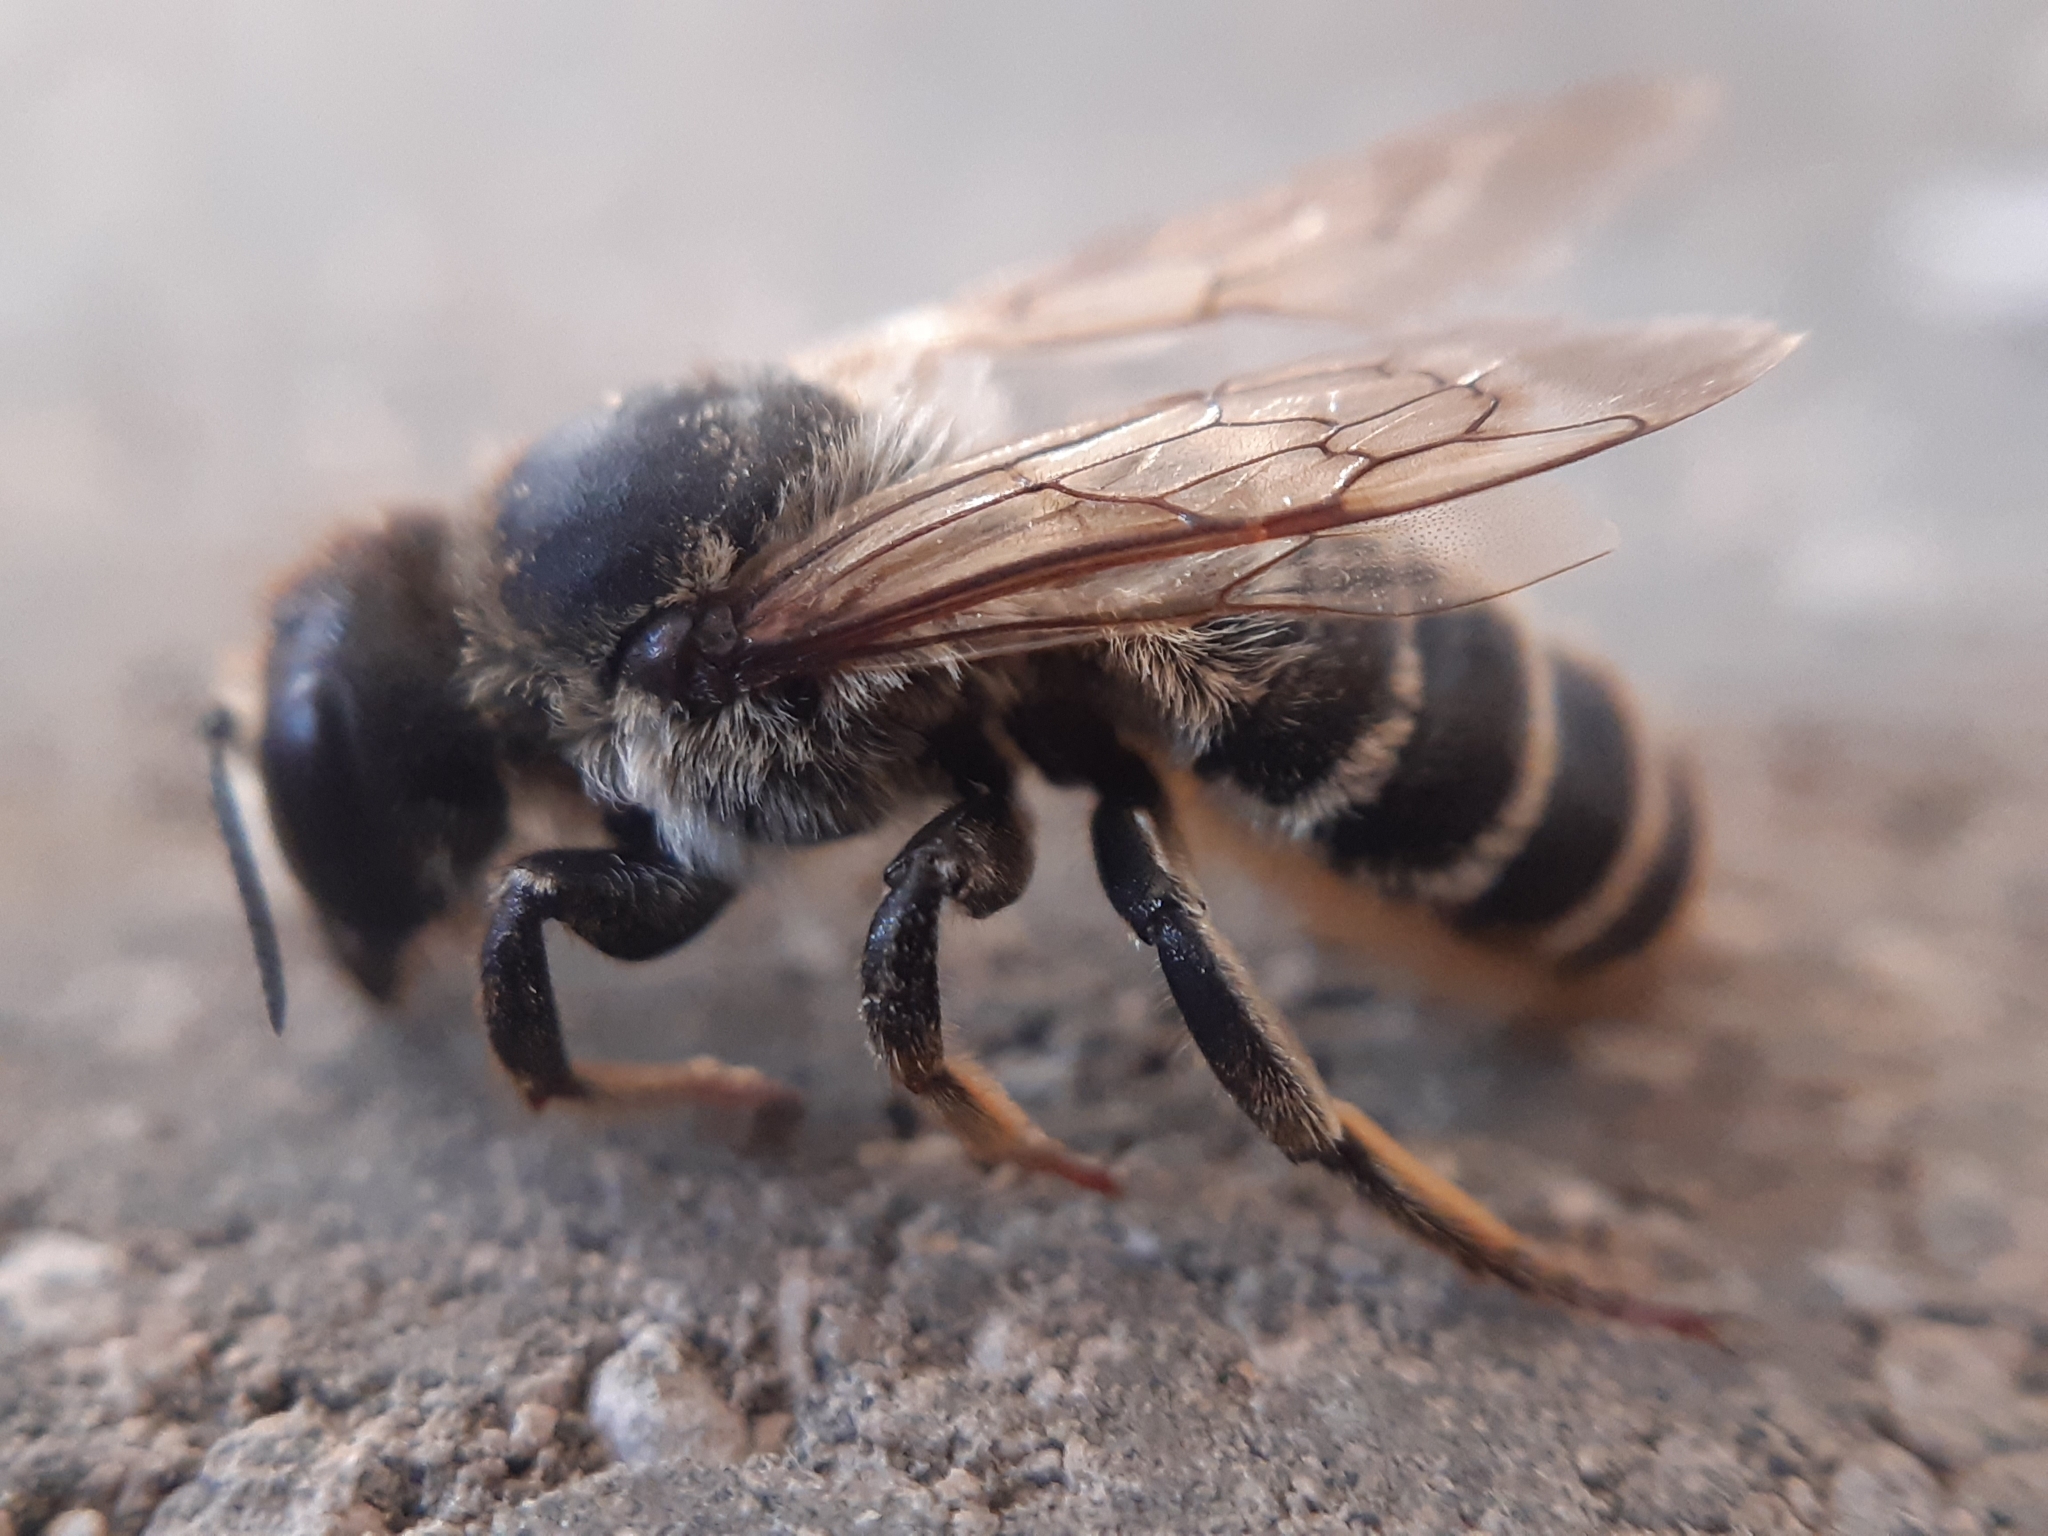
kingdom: Animalia
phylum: Arthropoda
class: Insecta
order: Hymenoptera
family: Megachilidae
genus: Megachile
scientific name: Megachile ericetorum
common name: Leafcutter bee
